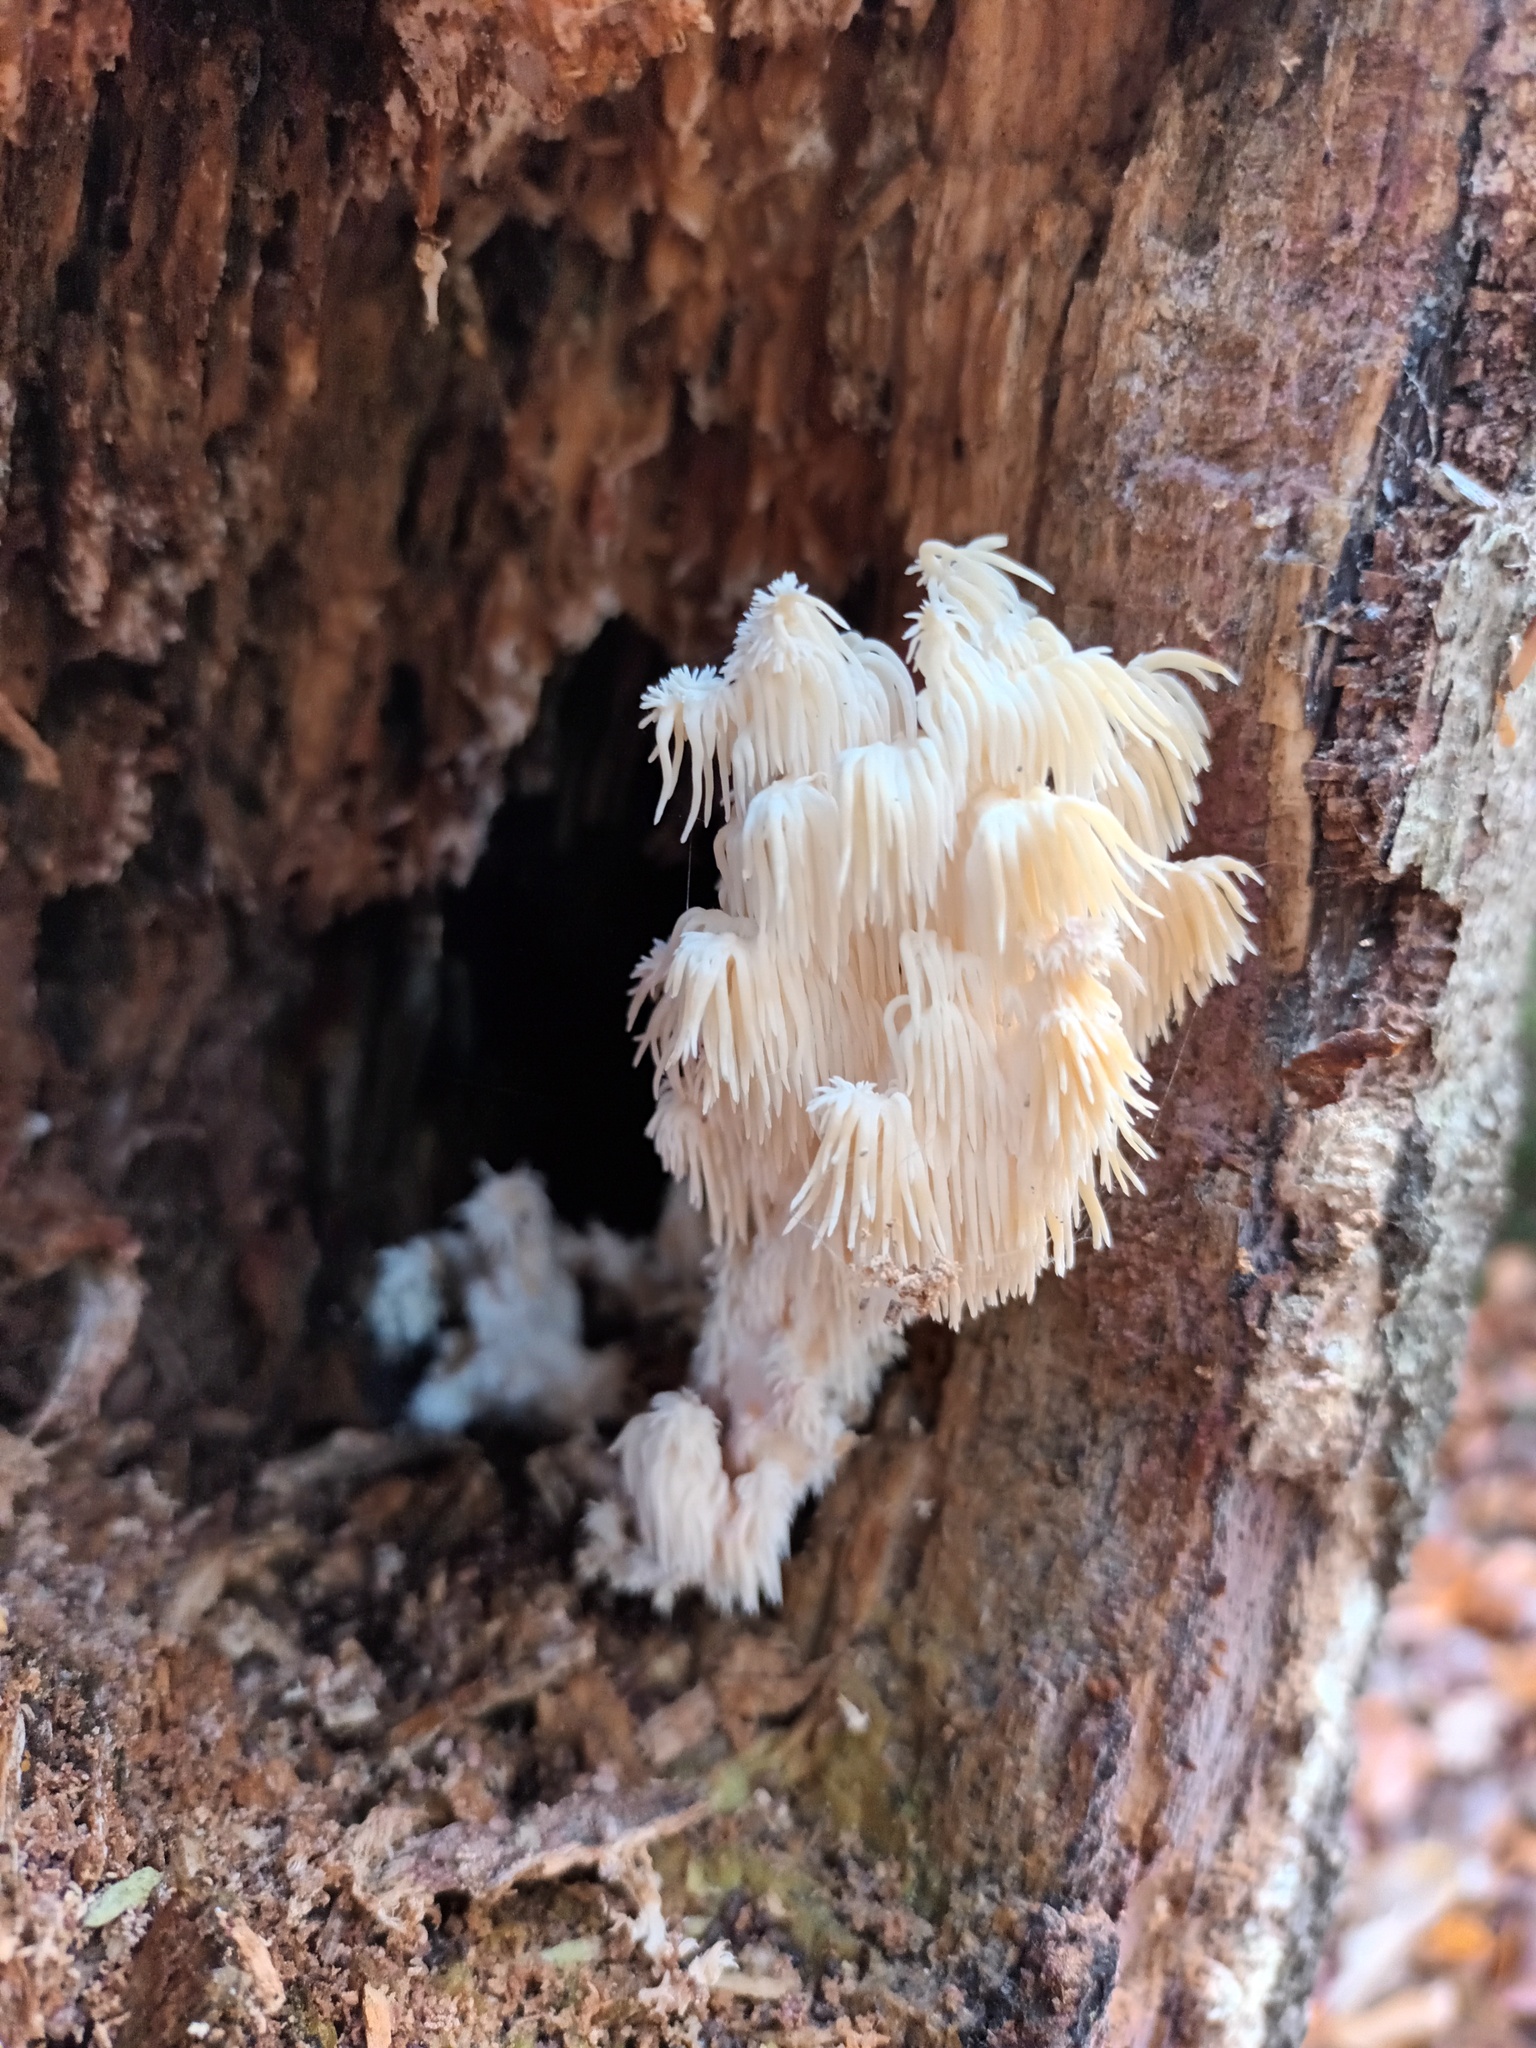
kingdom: Fungi
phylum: Basidiomycota
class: Agaricomycetes
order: Russulales
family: Hericiaceae
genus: Hericium
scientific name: Hericium coralloides
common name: Coral tooth
